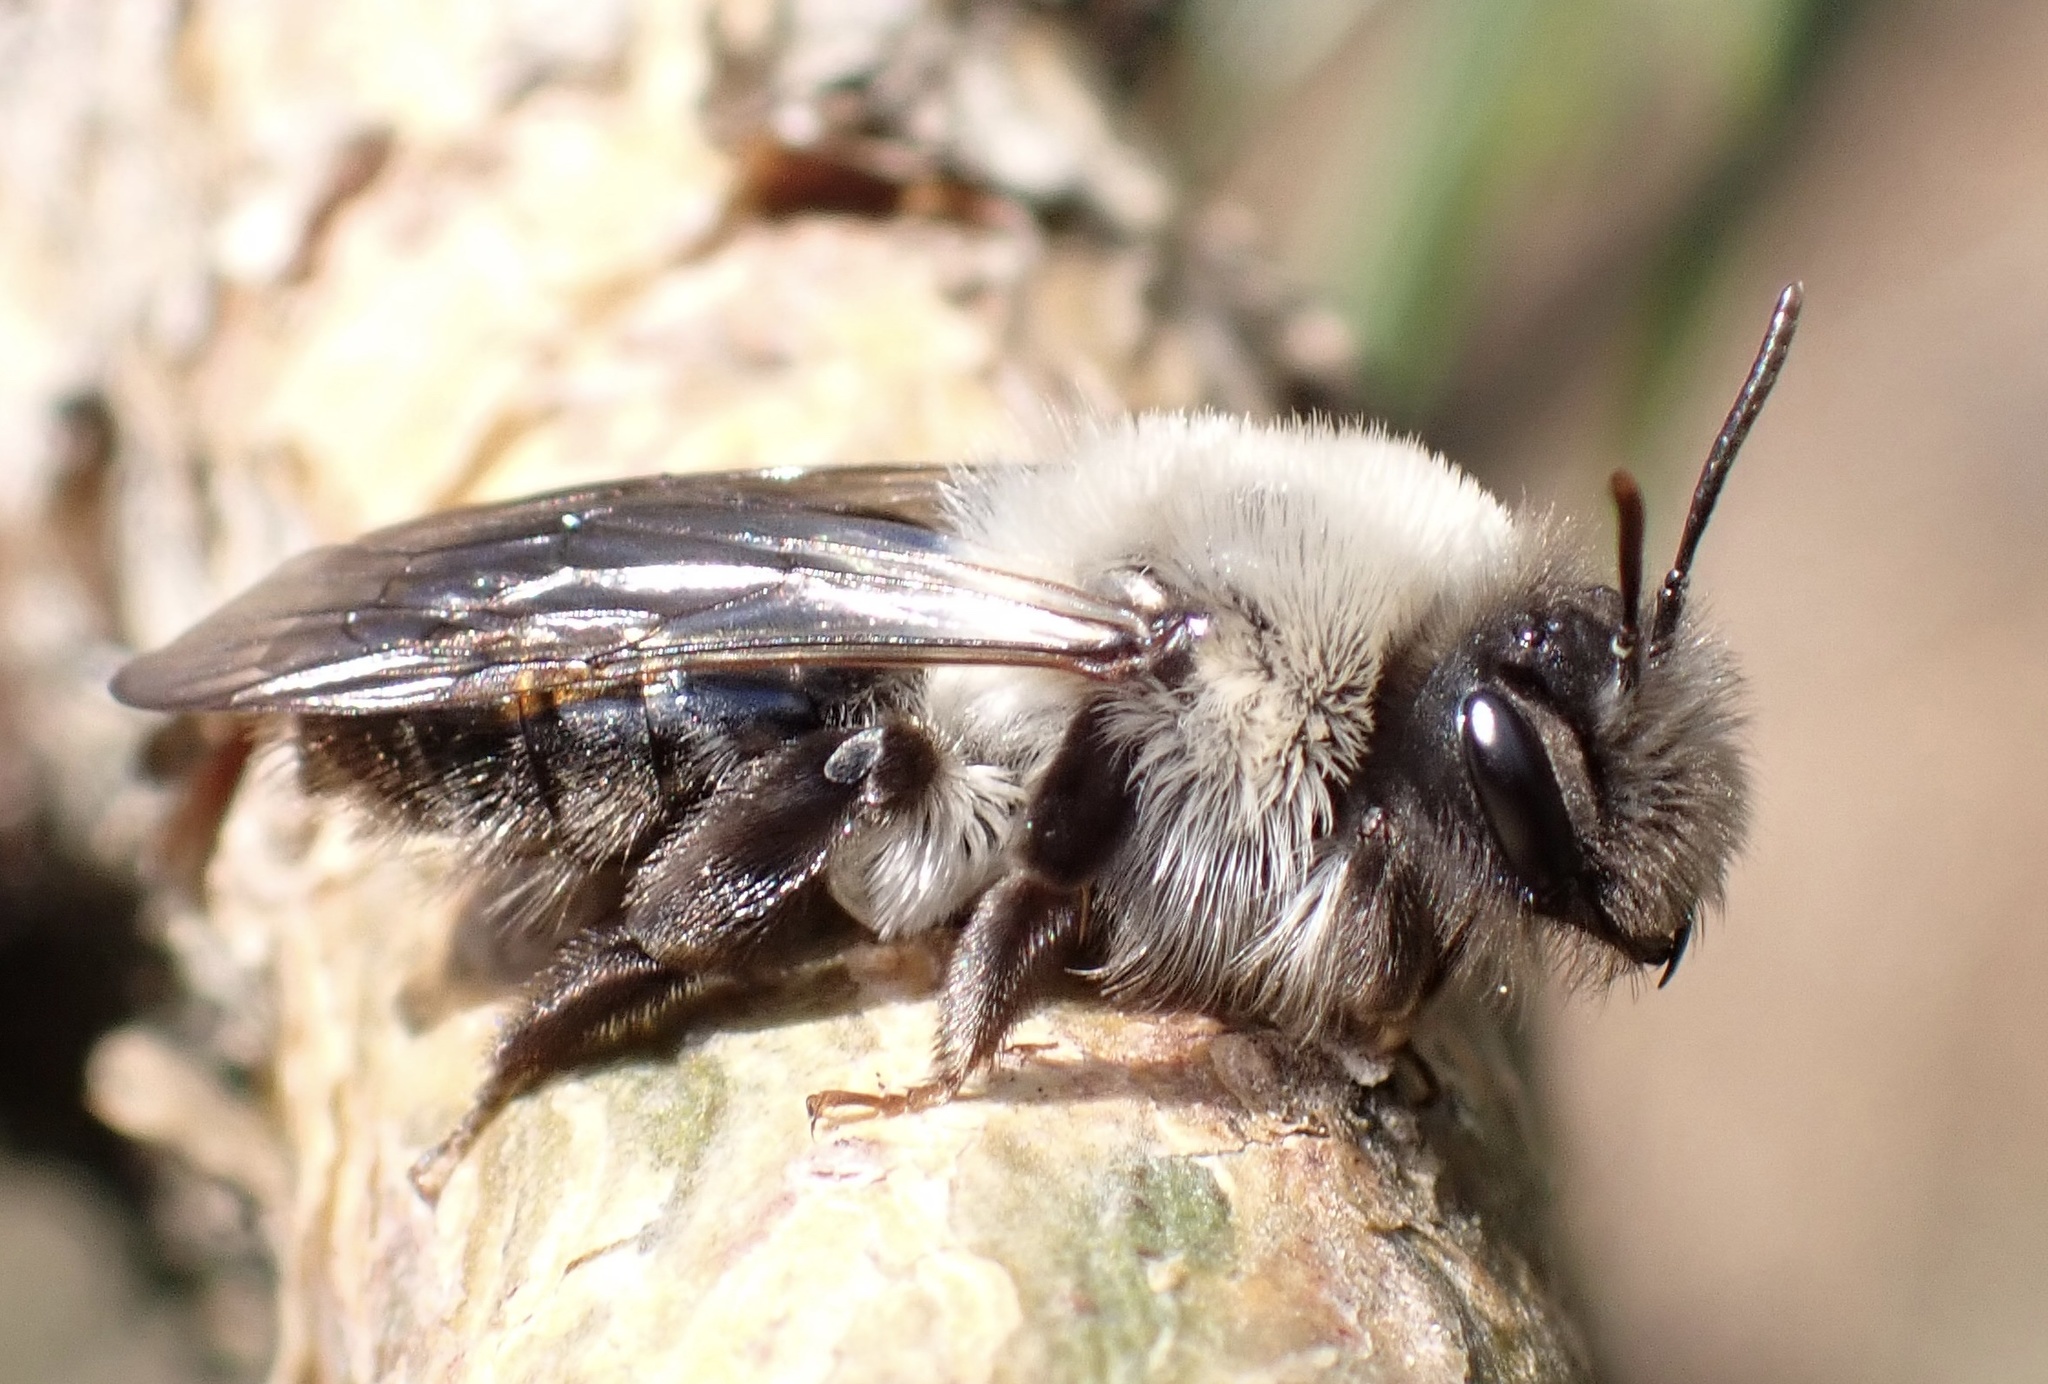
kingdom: Animalia
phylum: Arthropoda
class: Insecta
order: Hymenoptera
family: Andrenidae
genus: Andrena
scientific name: Andrena vaga
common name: Grey-backed mining bee
